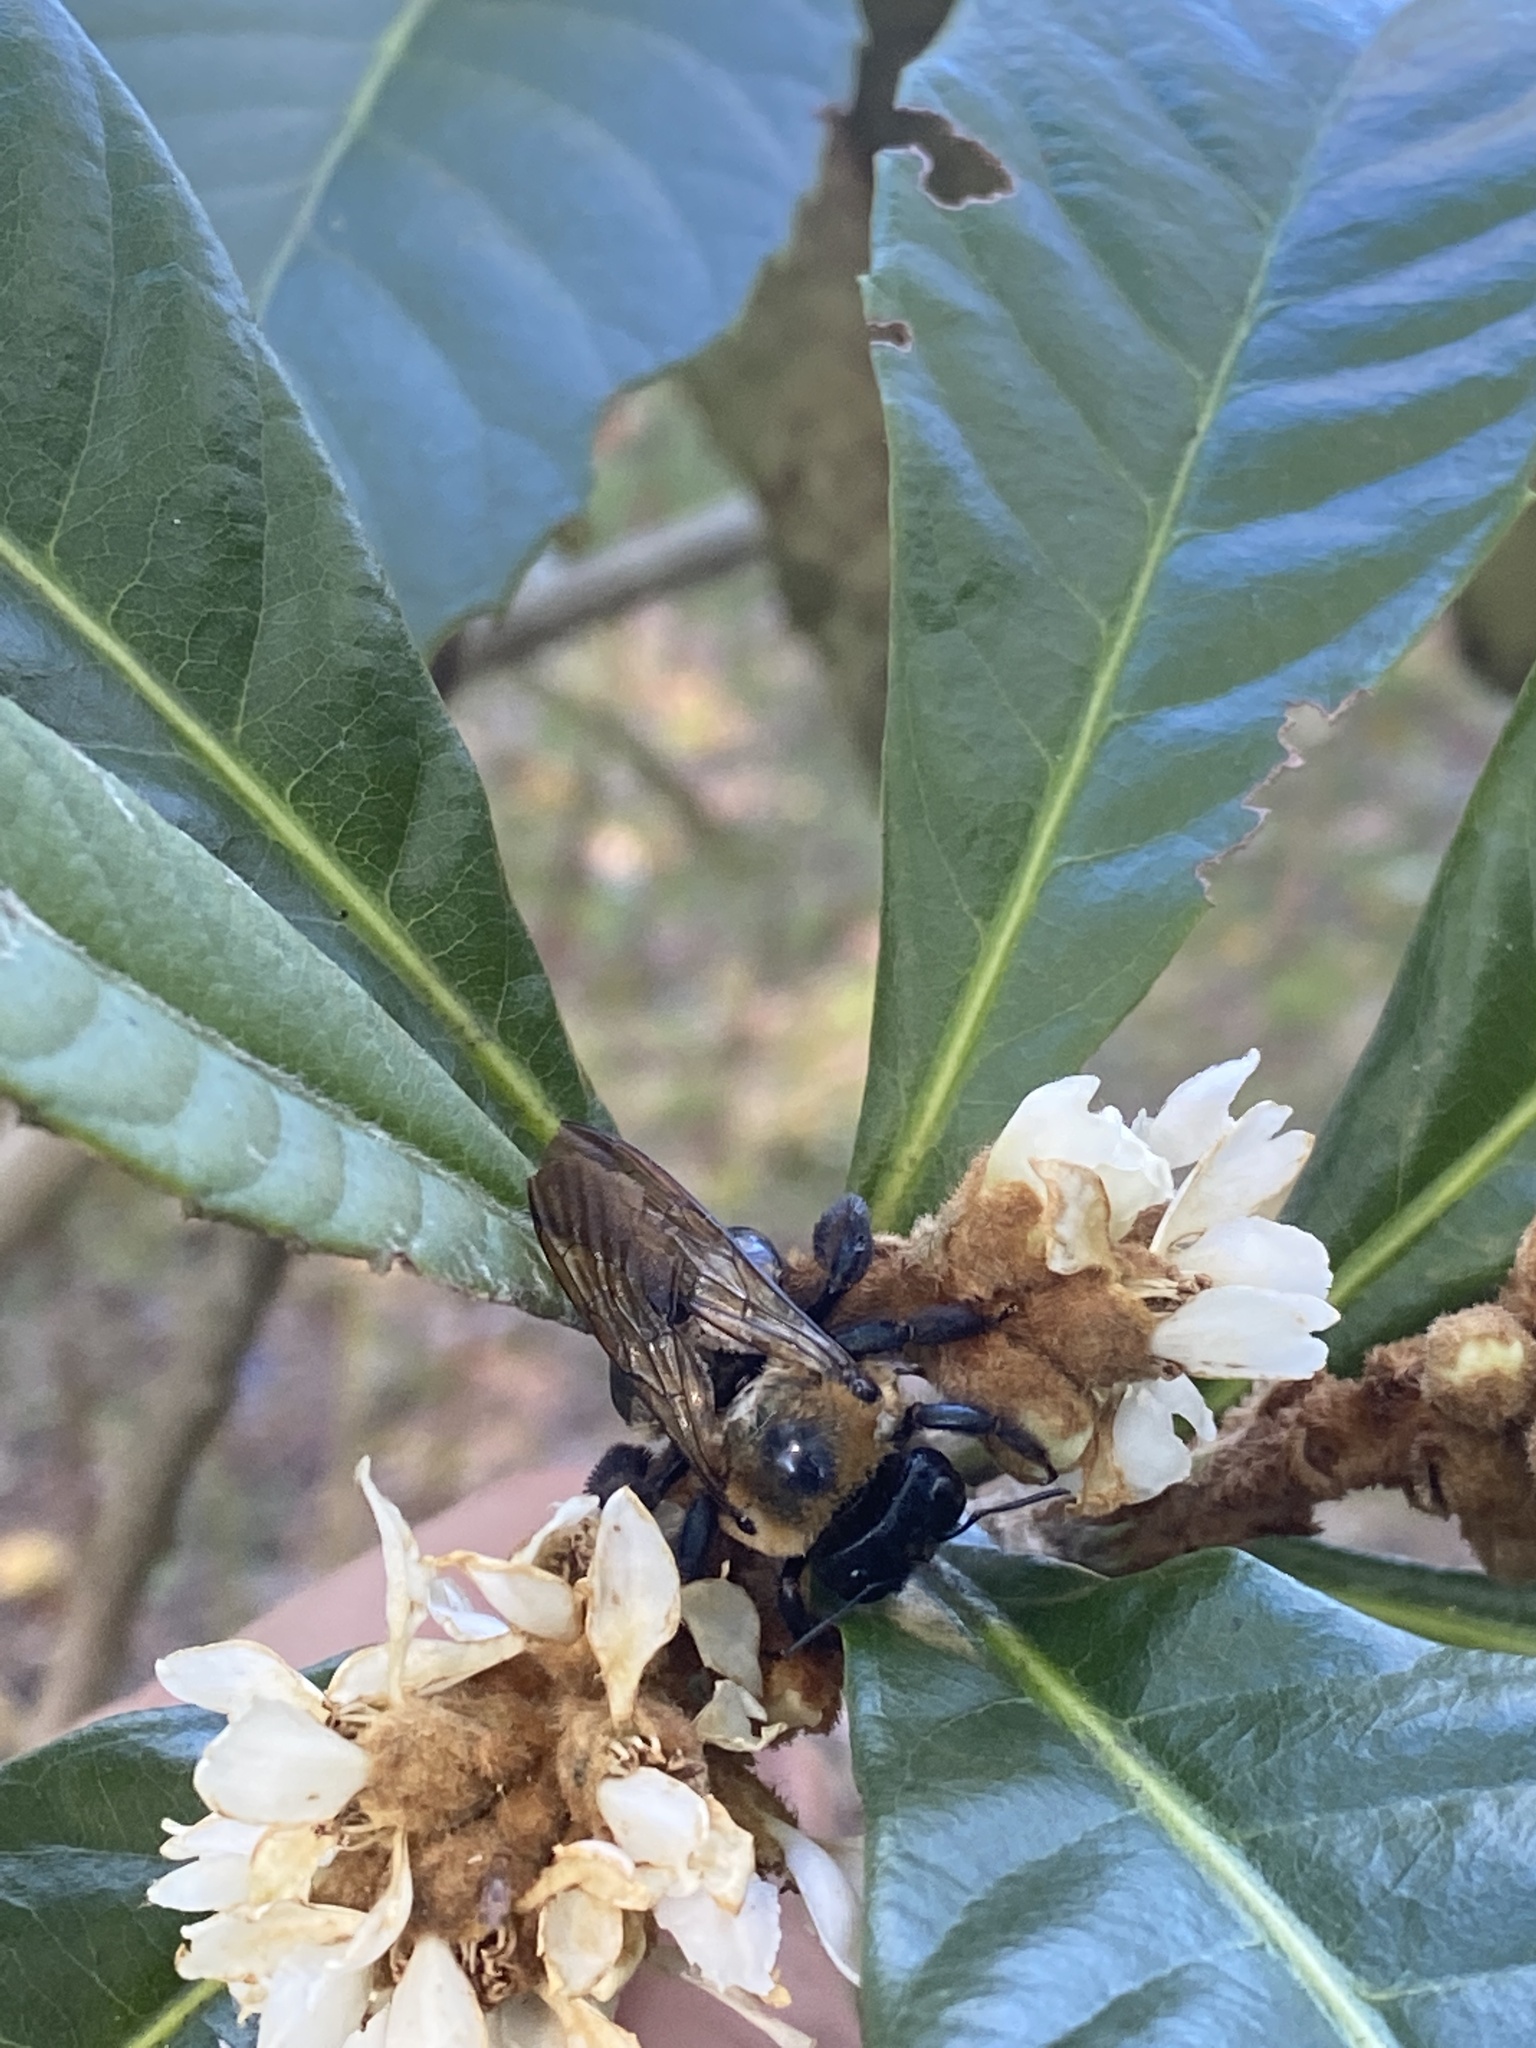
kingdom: Animalia
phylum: Arthropoda
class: Insecta
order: Hymenoptera
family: Apidae
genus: Xylocopa
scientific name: Xylocopa virginica
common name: Carpenter bee
